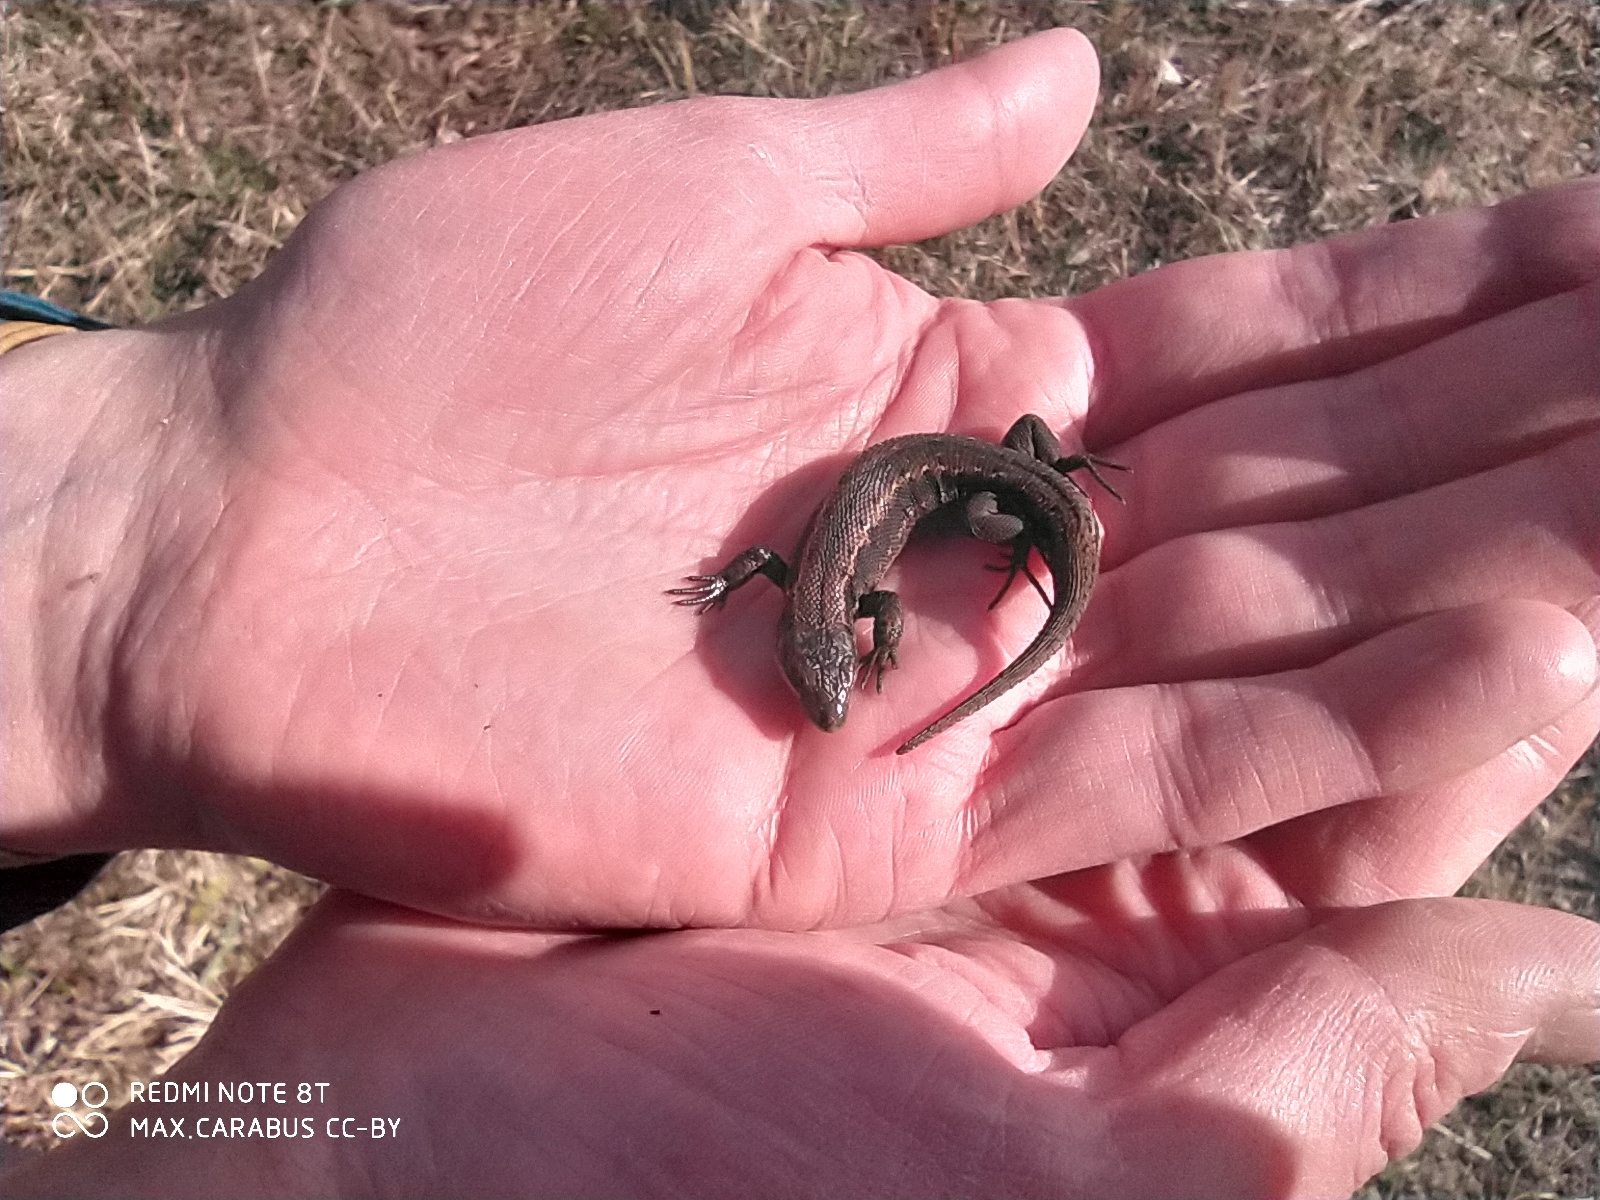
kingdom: Animalia
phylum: Chordata
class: Squamata
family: Lacertidae
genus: Zootoca
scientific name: Zootoca vivipara
